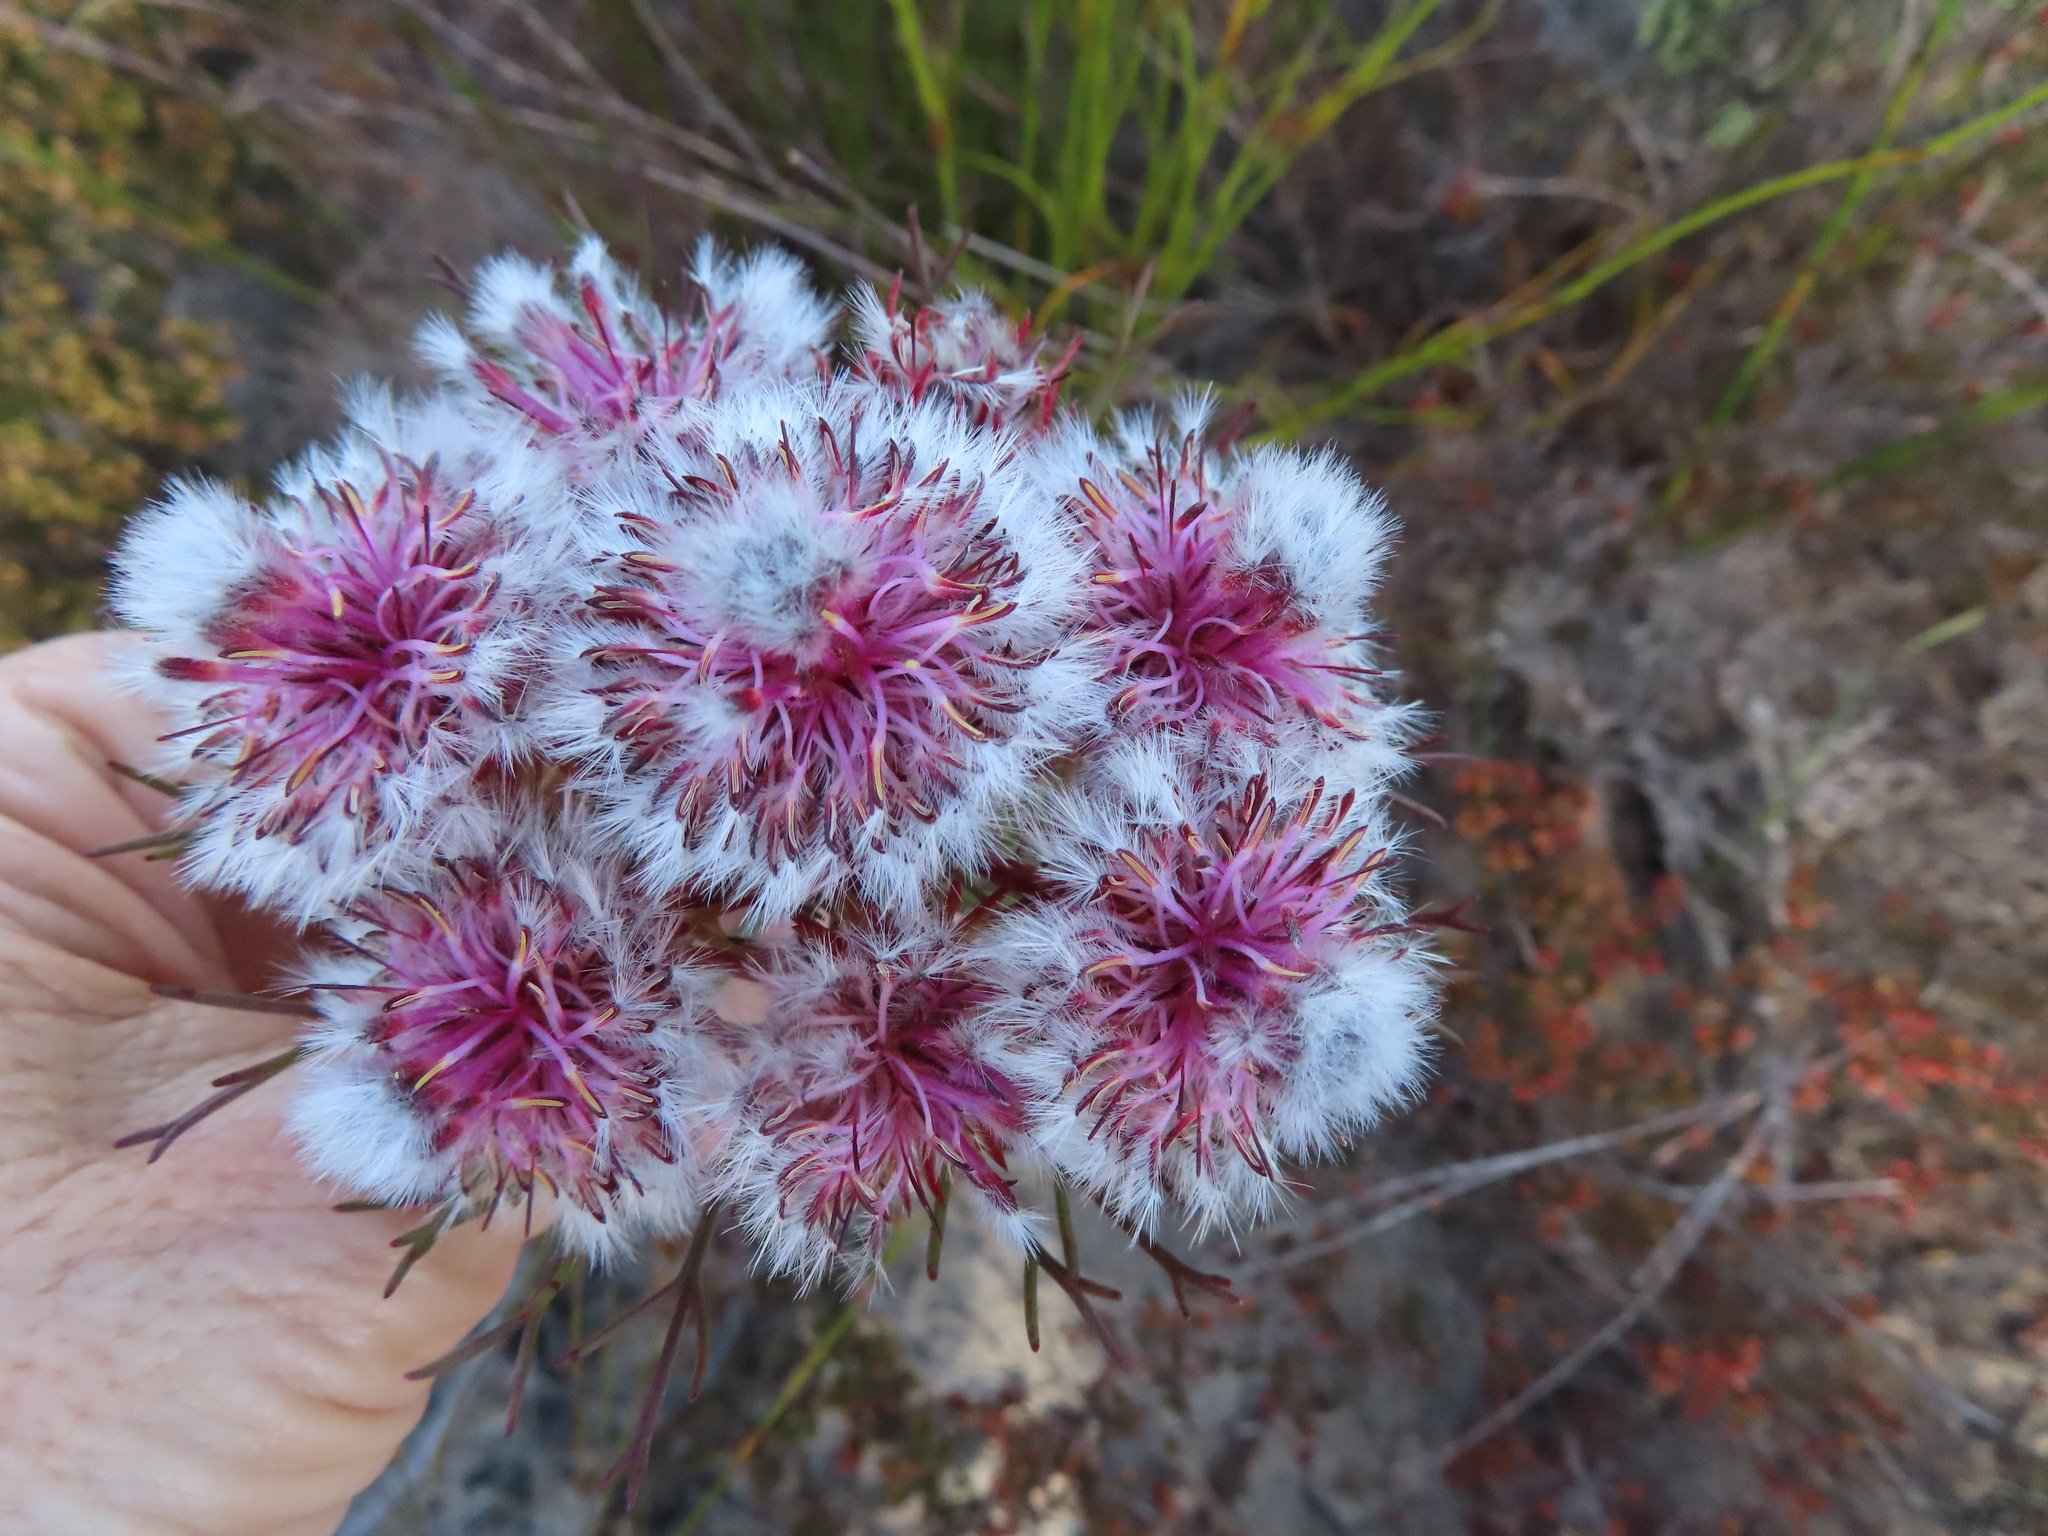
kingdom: Plantae
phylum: Tracheophyta
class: Magnoliopsida
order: Proteales
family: Proteaceae
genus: Serruria
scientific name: Serruria phylicoides
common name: Bearded spiderhead
